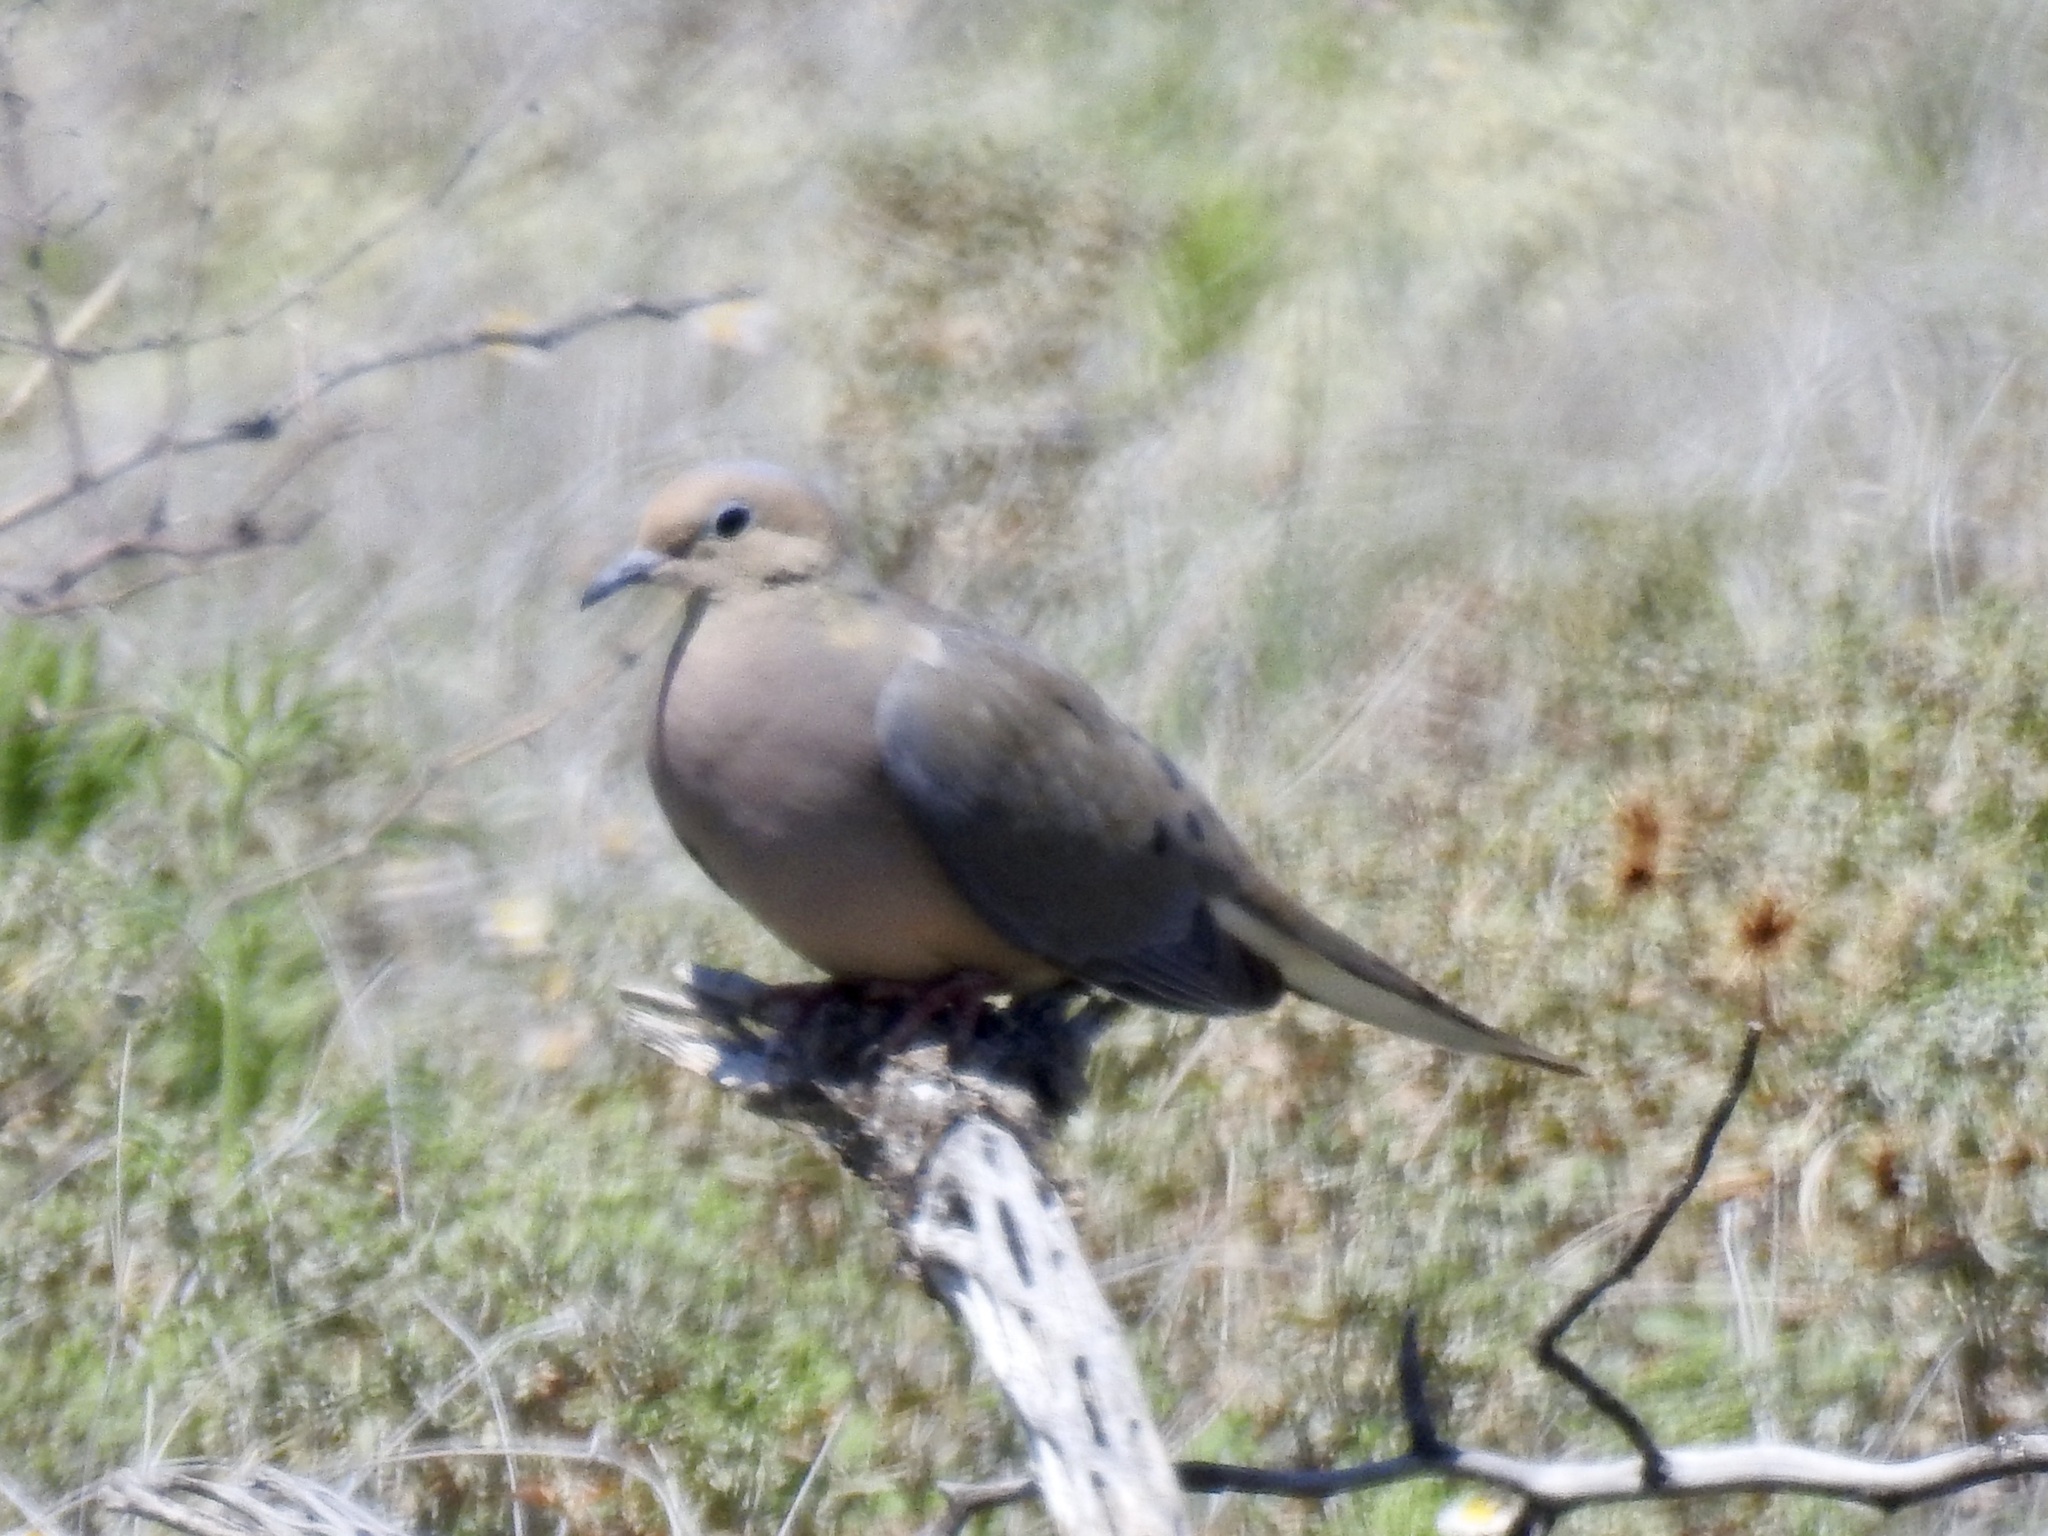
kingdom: Animalia
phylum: Chordata
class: Aves
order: Columbiformes
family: Columbidae
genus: Zenaida
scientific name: Zenaida macroura
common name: Mourning dove
